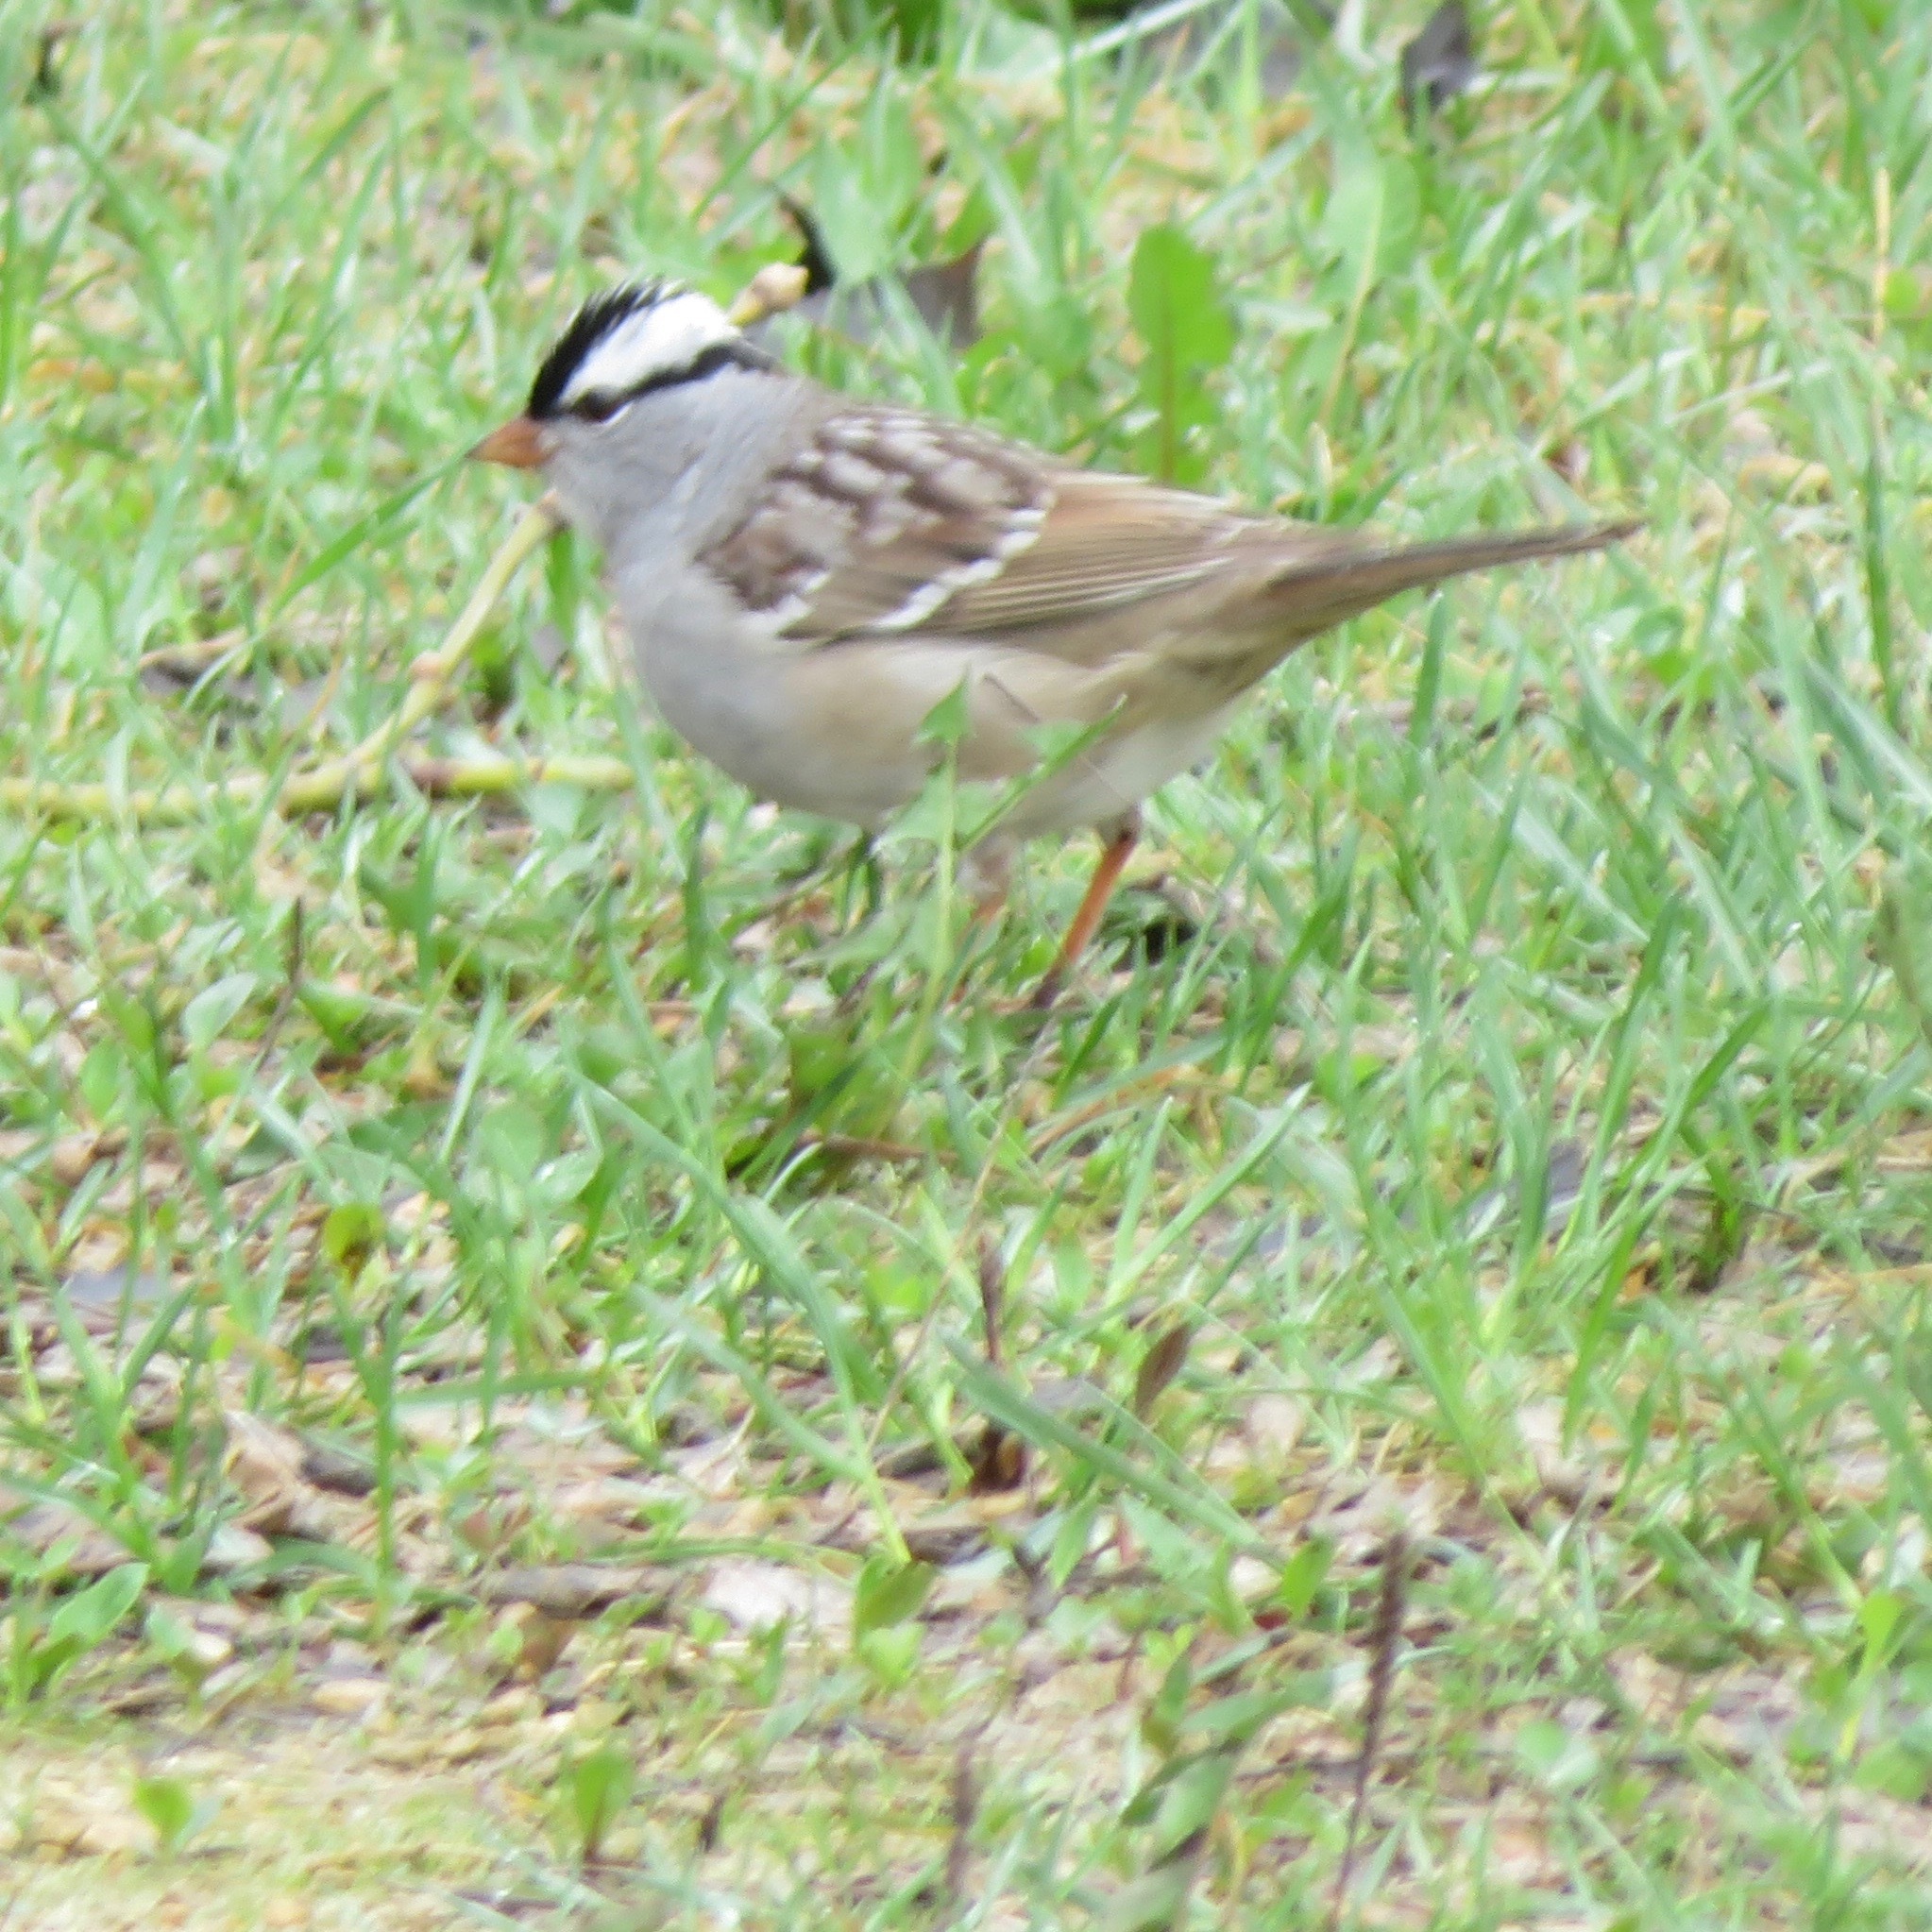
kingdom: Animalia
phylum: Chordata
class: Aves
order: Passeriformes
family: Passerellidae
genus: Zonotrichia
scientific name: Zonotrichia leucophrys
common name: White-crowned sparrow
